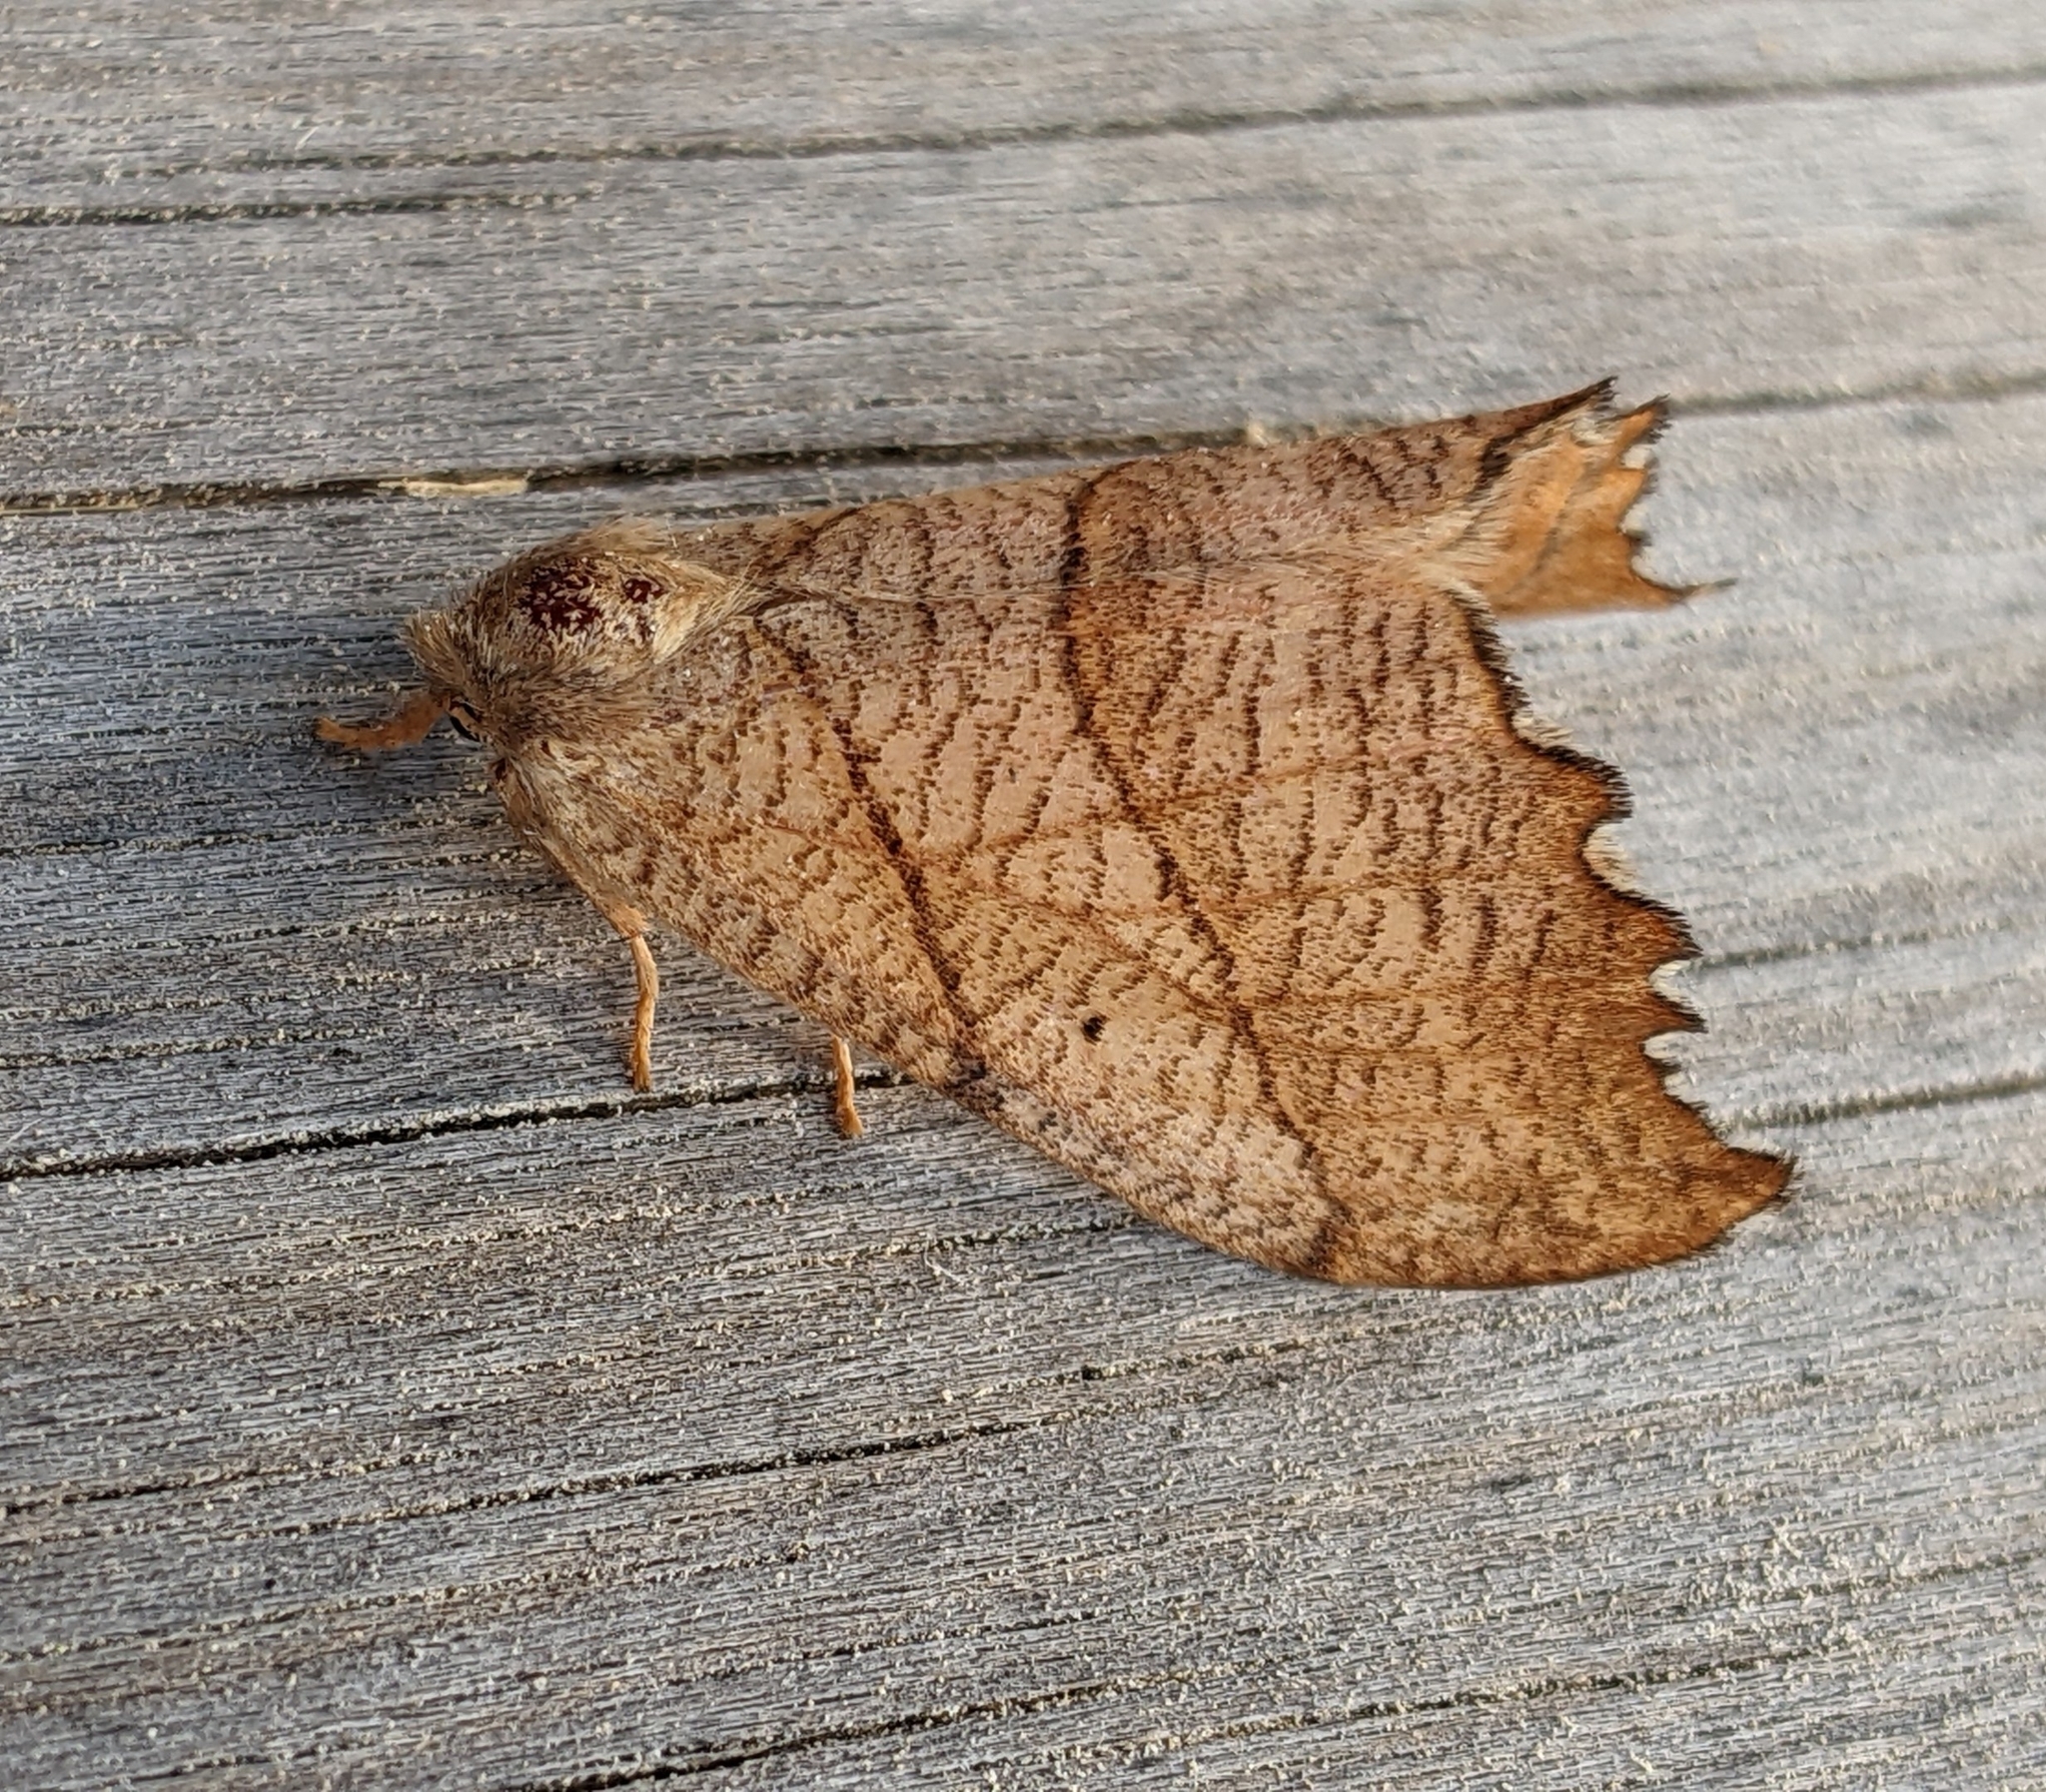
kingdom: Animalia
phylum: Arthropoda
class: Insecta
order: Lepidoptera
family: Drepanidae
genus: Falcaria
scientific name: Falcaria bilineata
